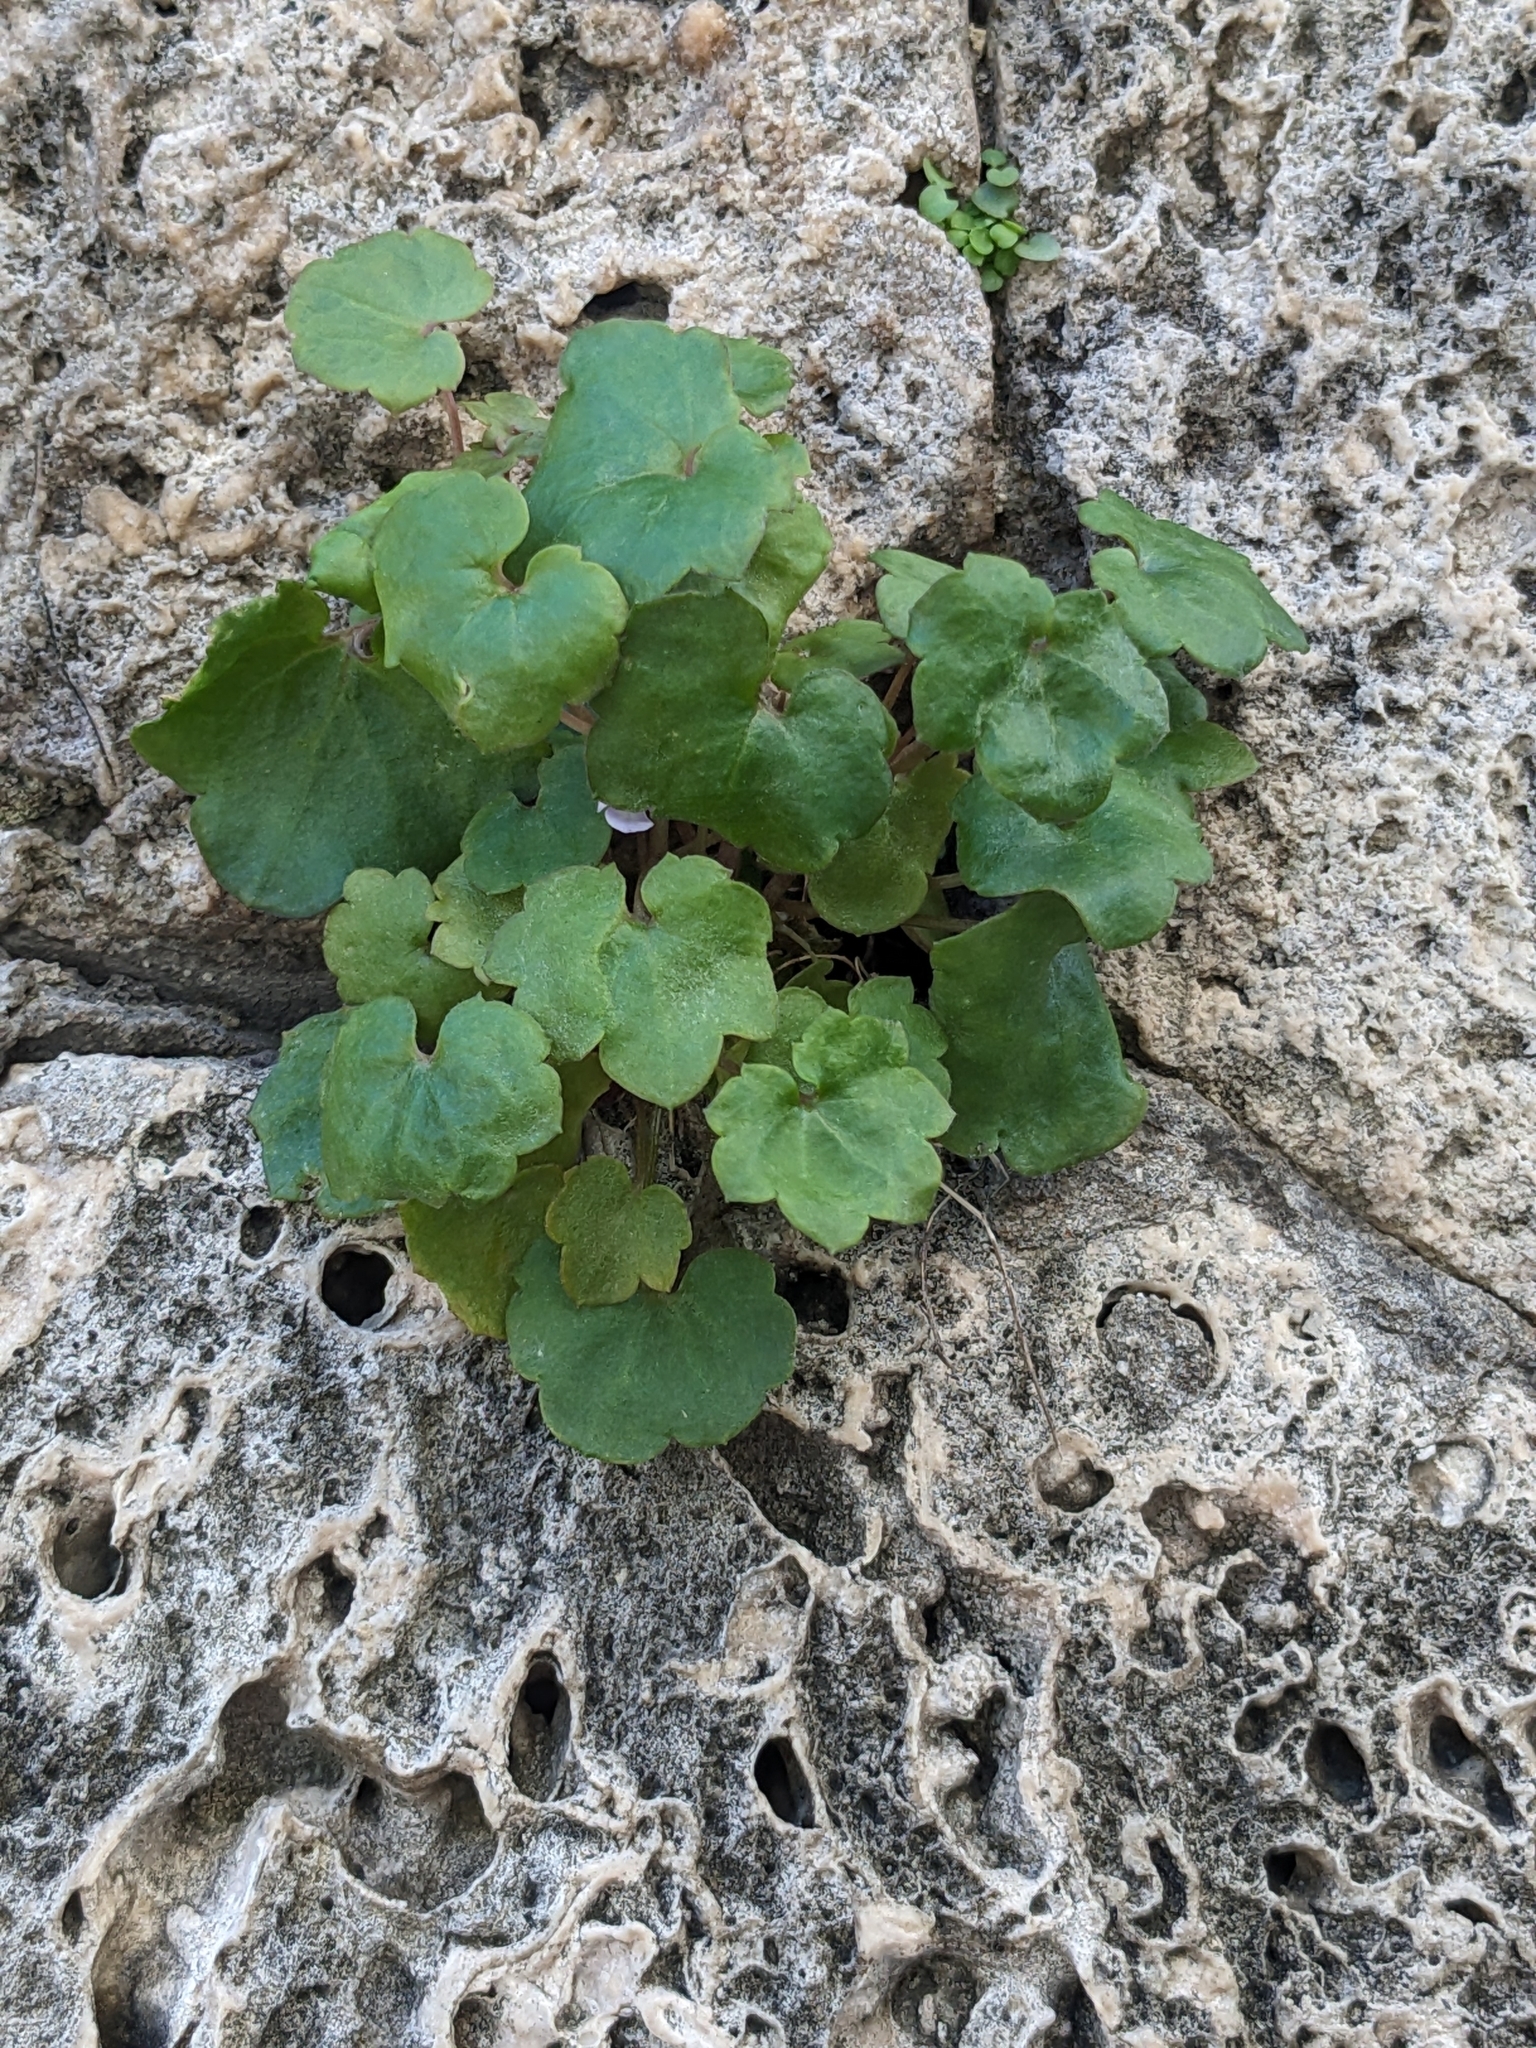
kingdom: Plantae
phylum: Tracheophyta
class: Magnoliopsida
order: Lamiales
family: Plantaginaceae
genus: Cymbalaria
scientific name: Cymbalaria muralis
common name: Ivy-leaved toadflax
